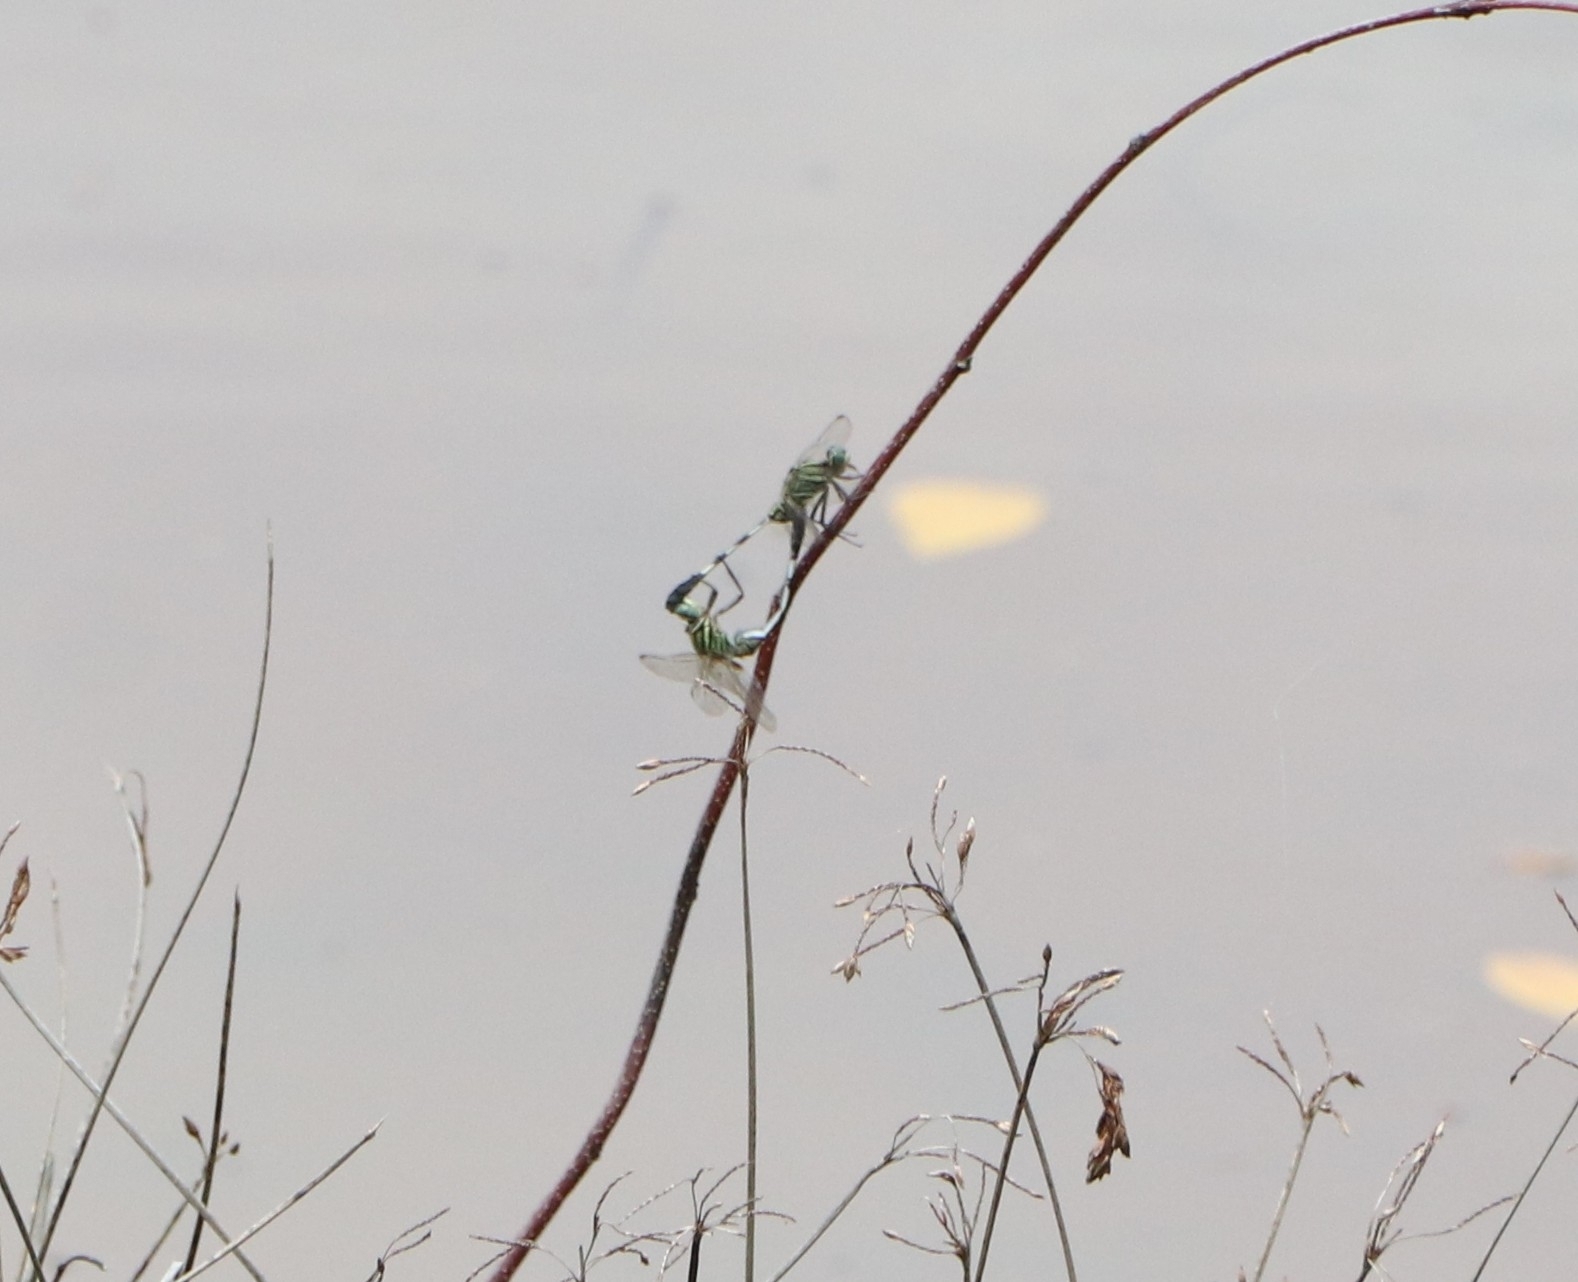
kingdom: Animalia
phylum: Arthropoda
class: Insecta
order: Odonata
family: Libellulidae
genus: Orthetrum
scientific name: Orthetrum sabina
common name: Slender skimmer
